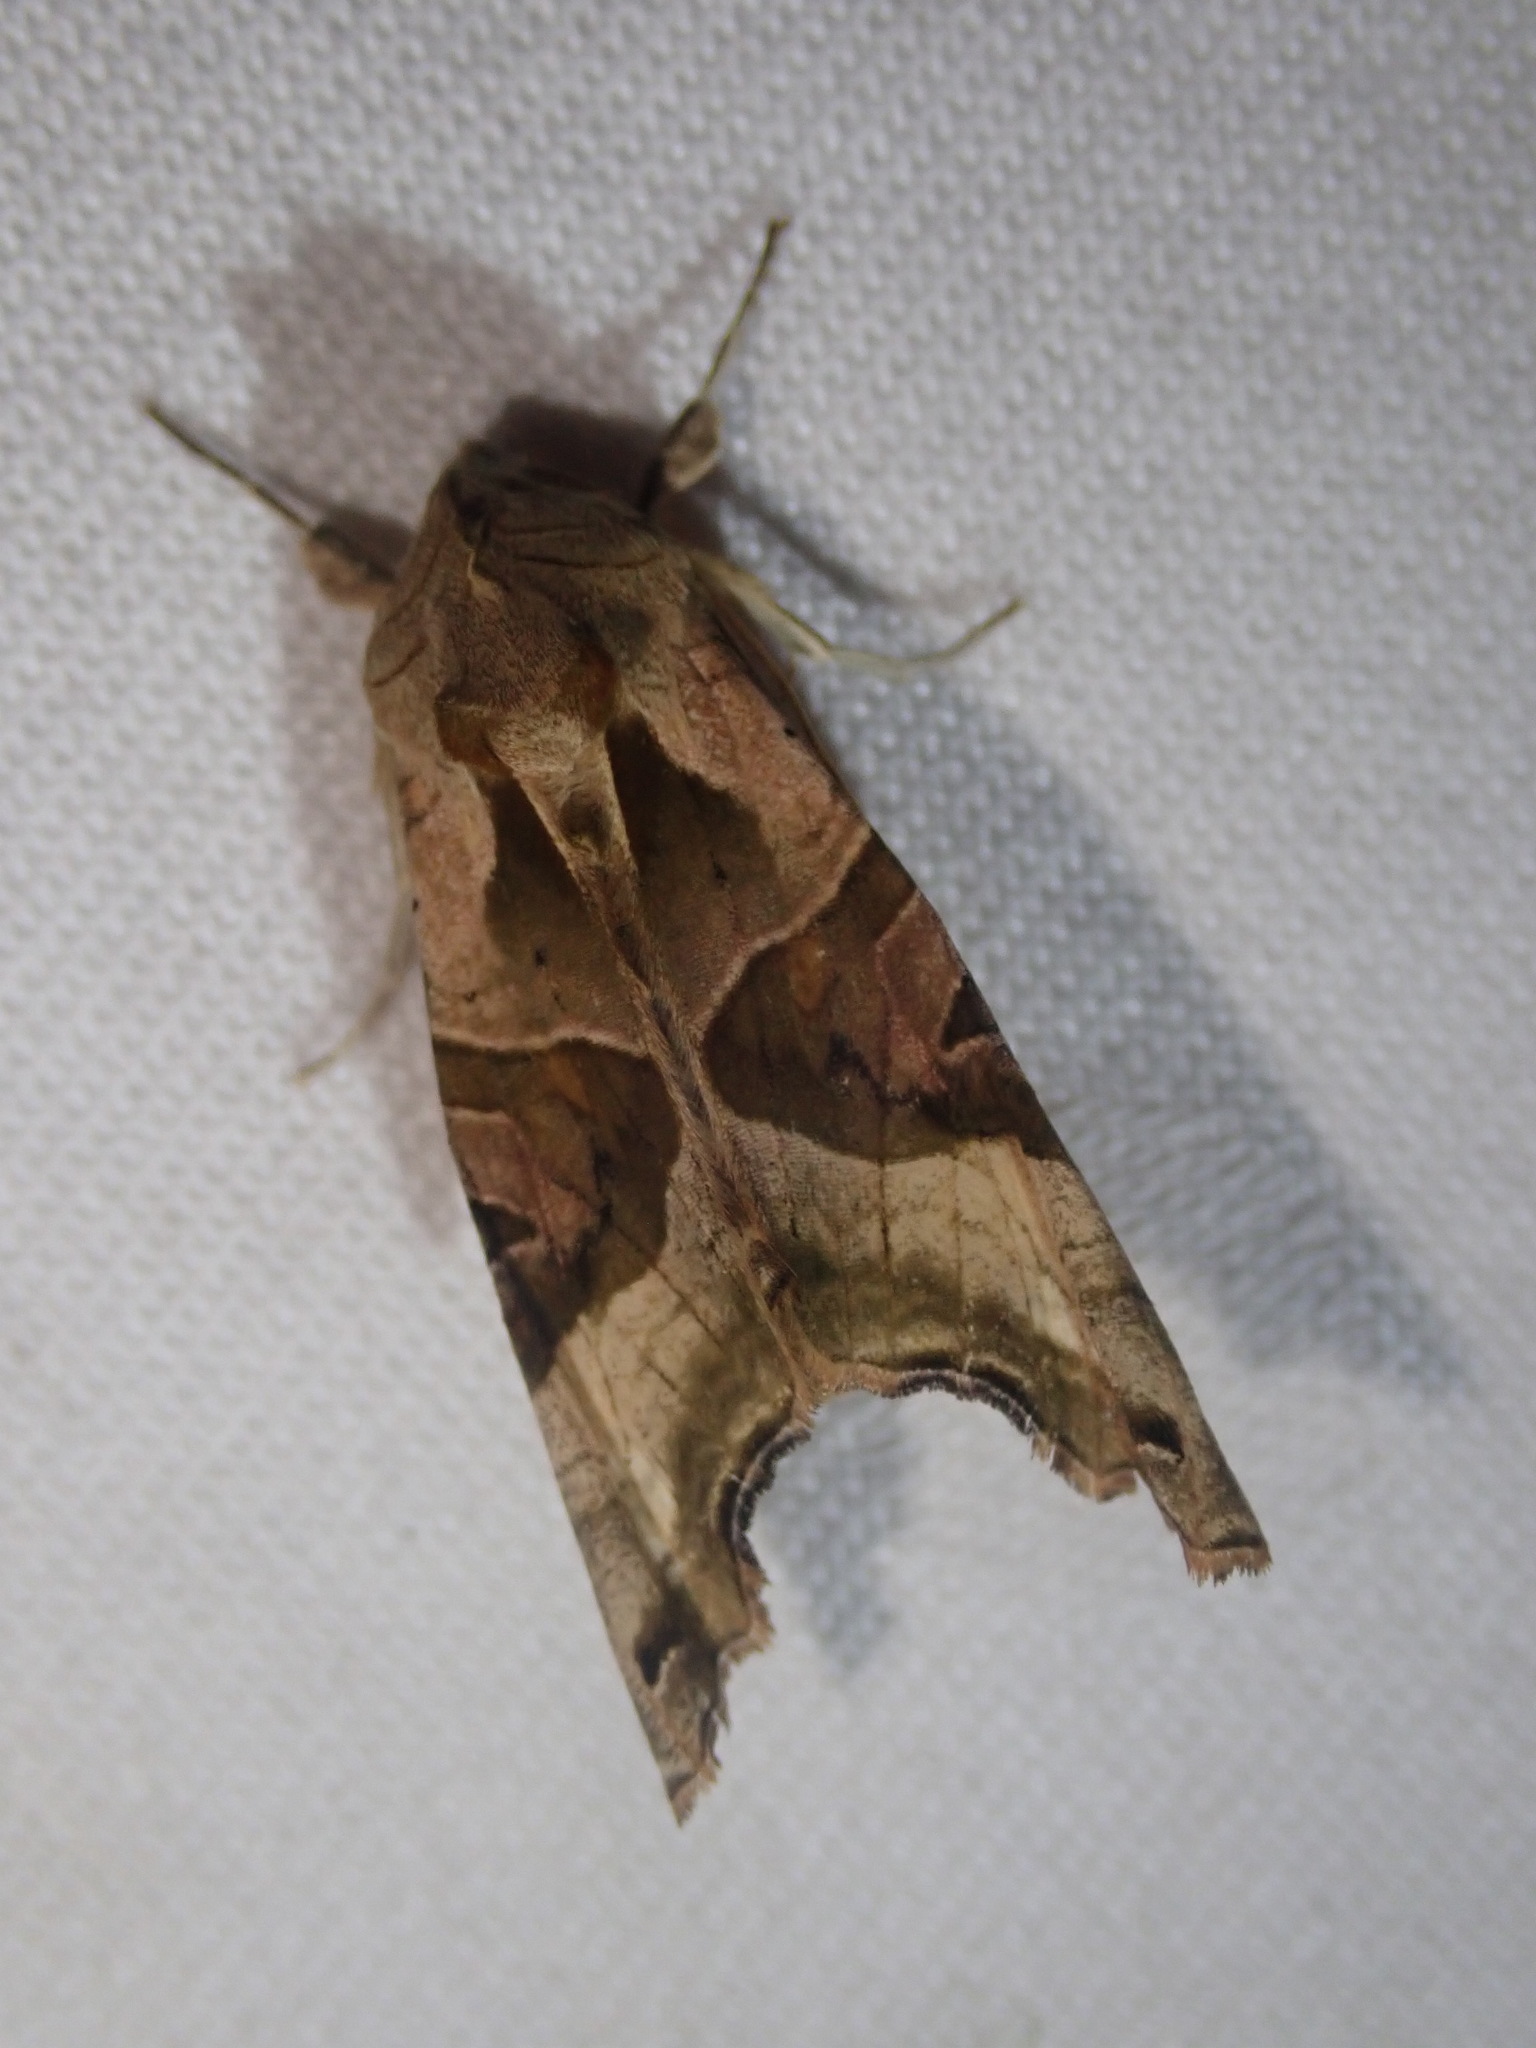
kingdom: Animalia
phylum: Arthropoda
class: Insecta
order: Lepidoptera
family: Noctuidae
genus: Phlogophora
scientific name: Phlogophora meticulosa
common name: Angle shades
